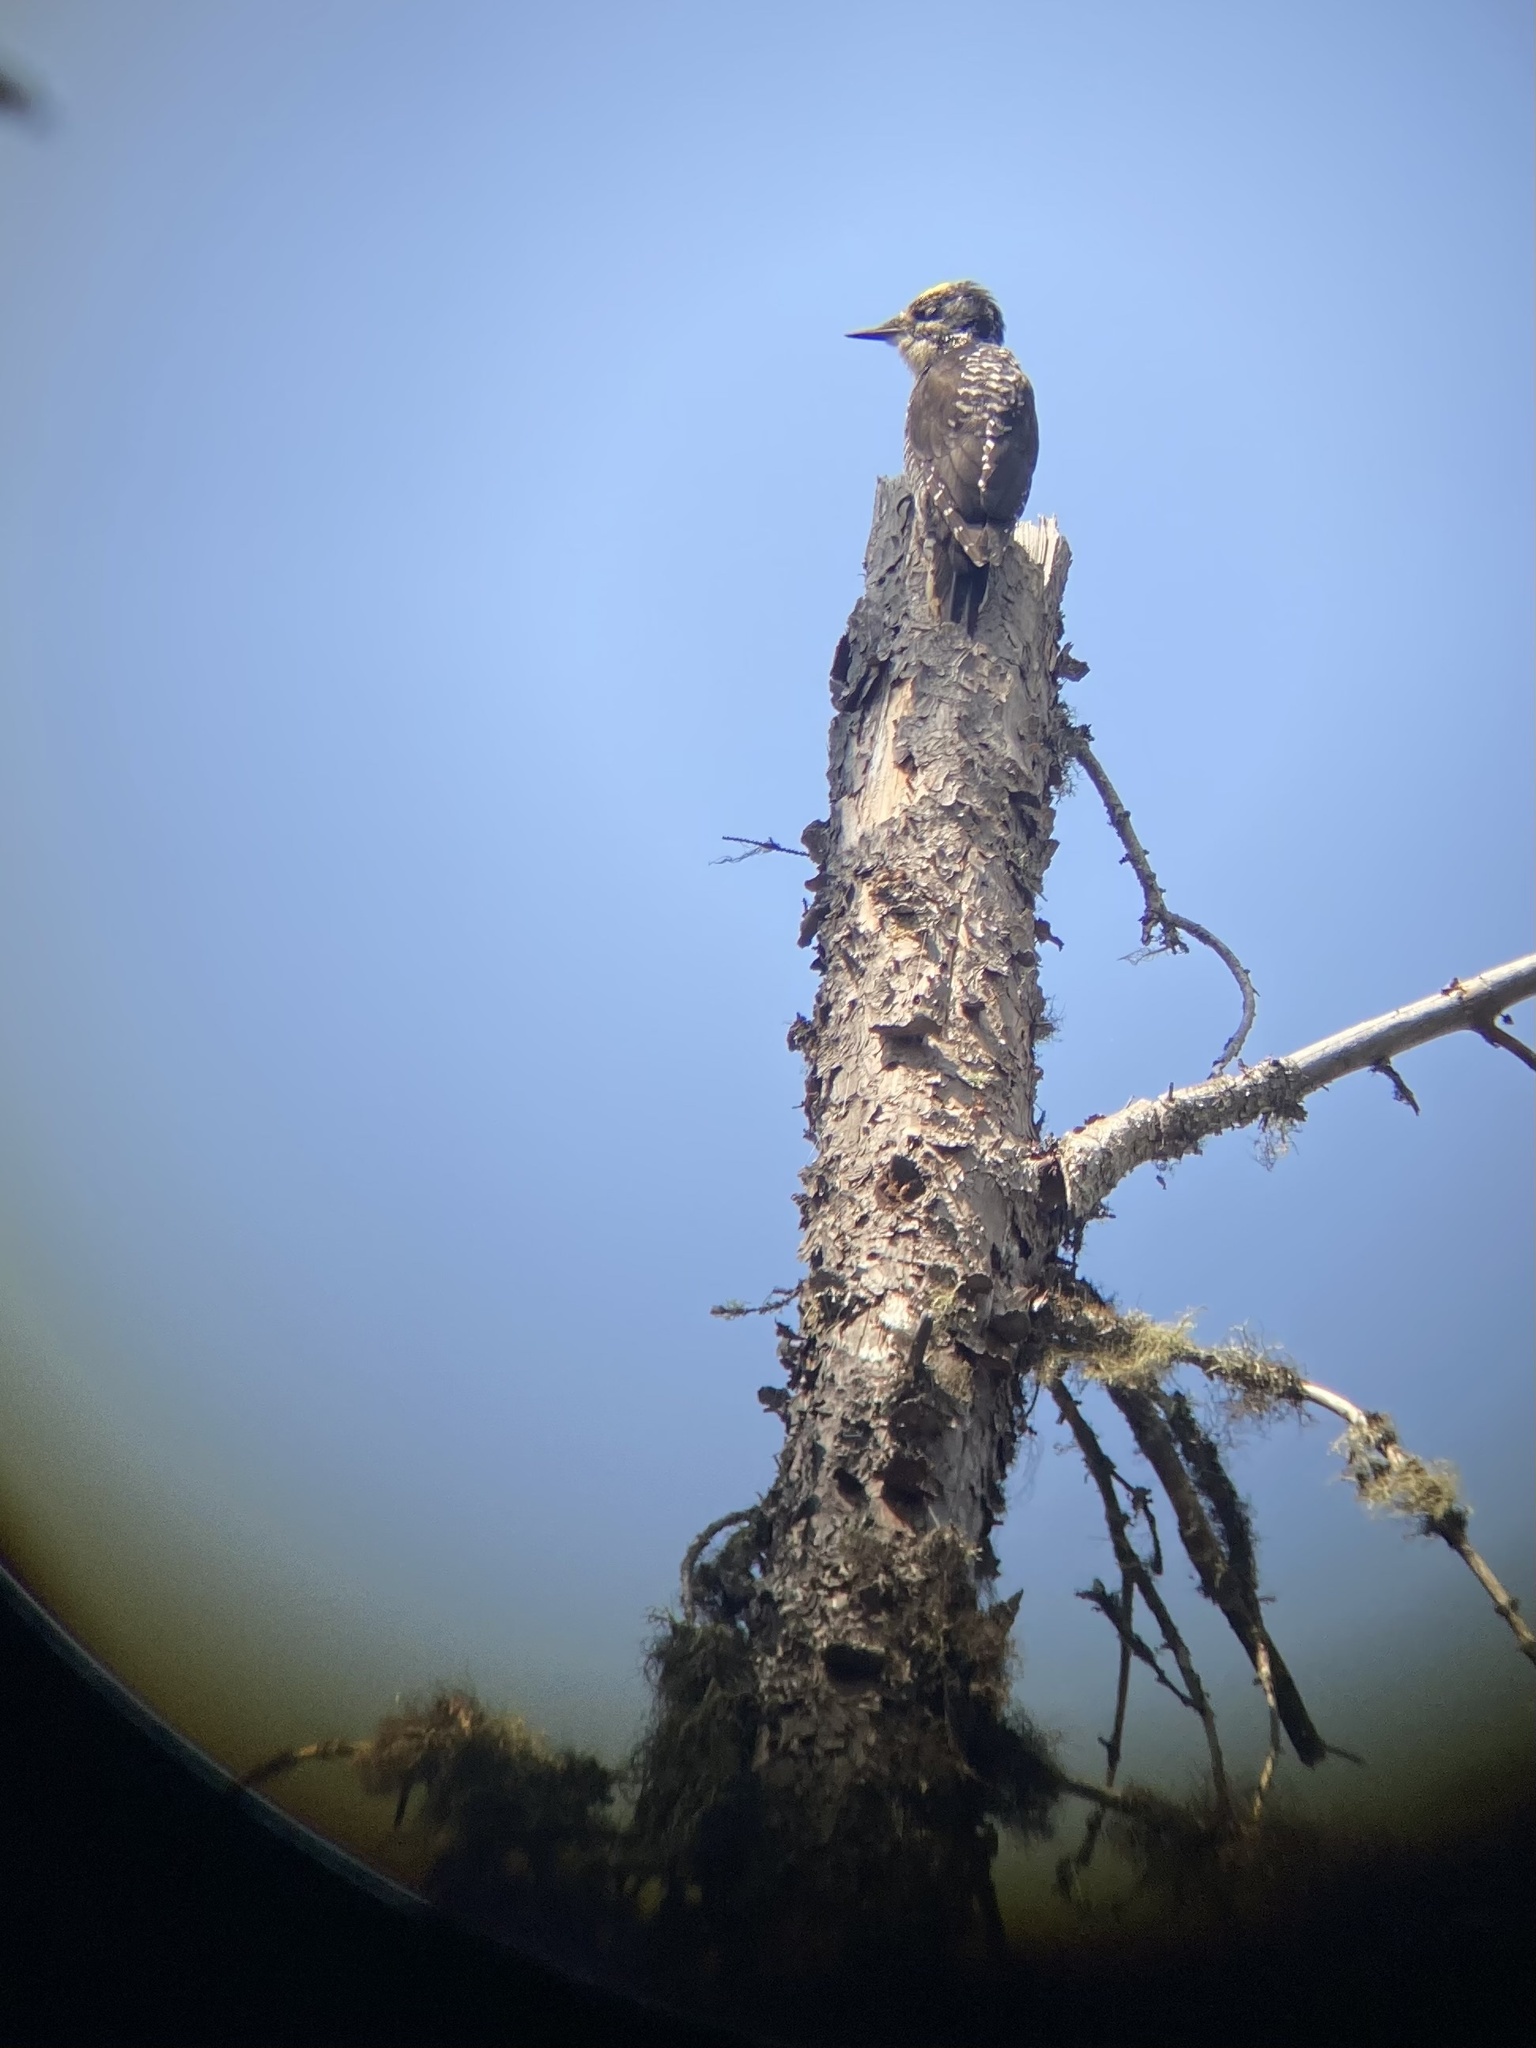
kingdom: Animalia
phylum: Chordata
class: Aves
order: Piciformes
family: Picidae
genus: Picoides
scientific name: Picoides dorsalis
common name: American three-toed woodpecker
